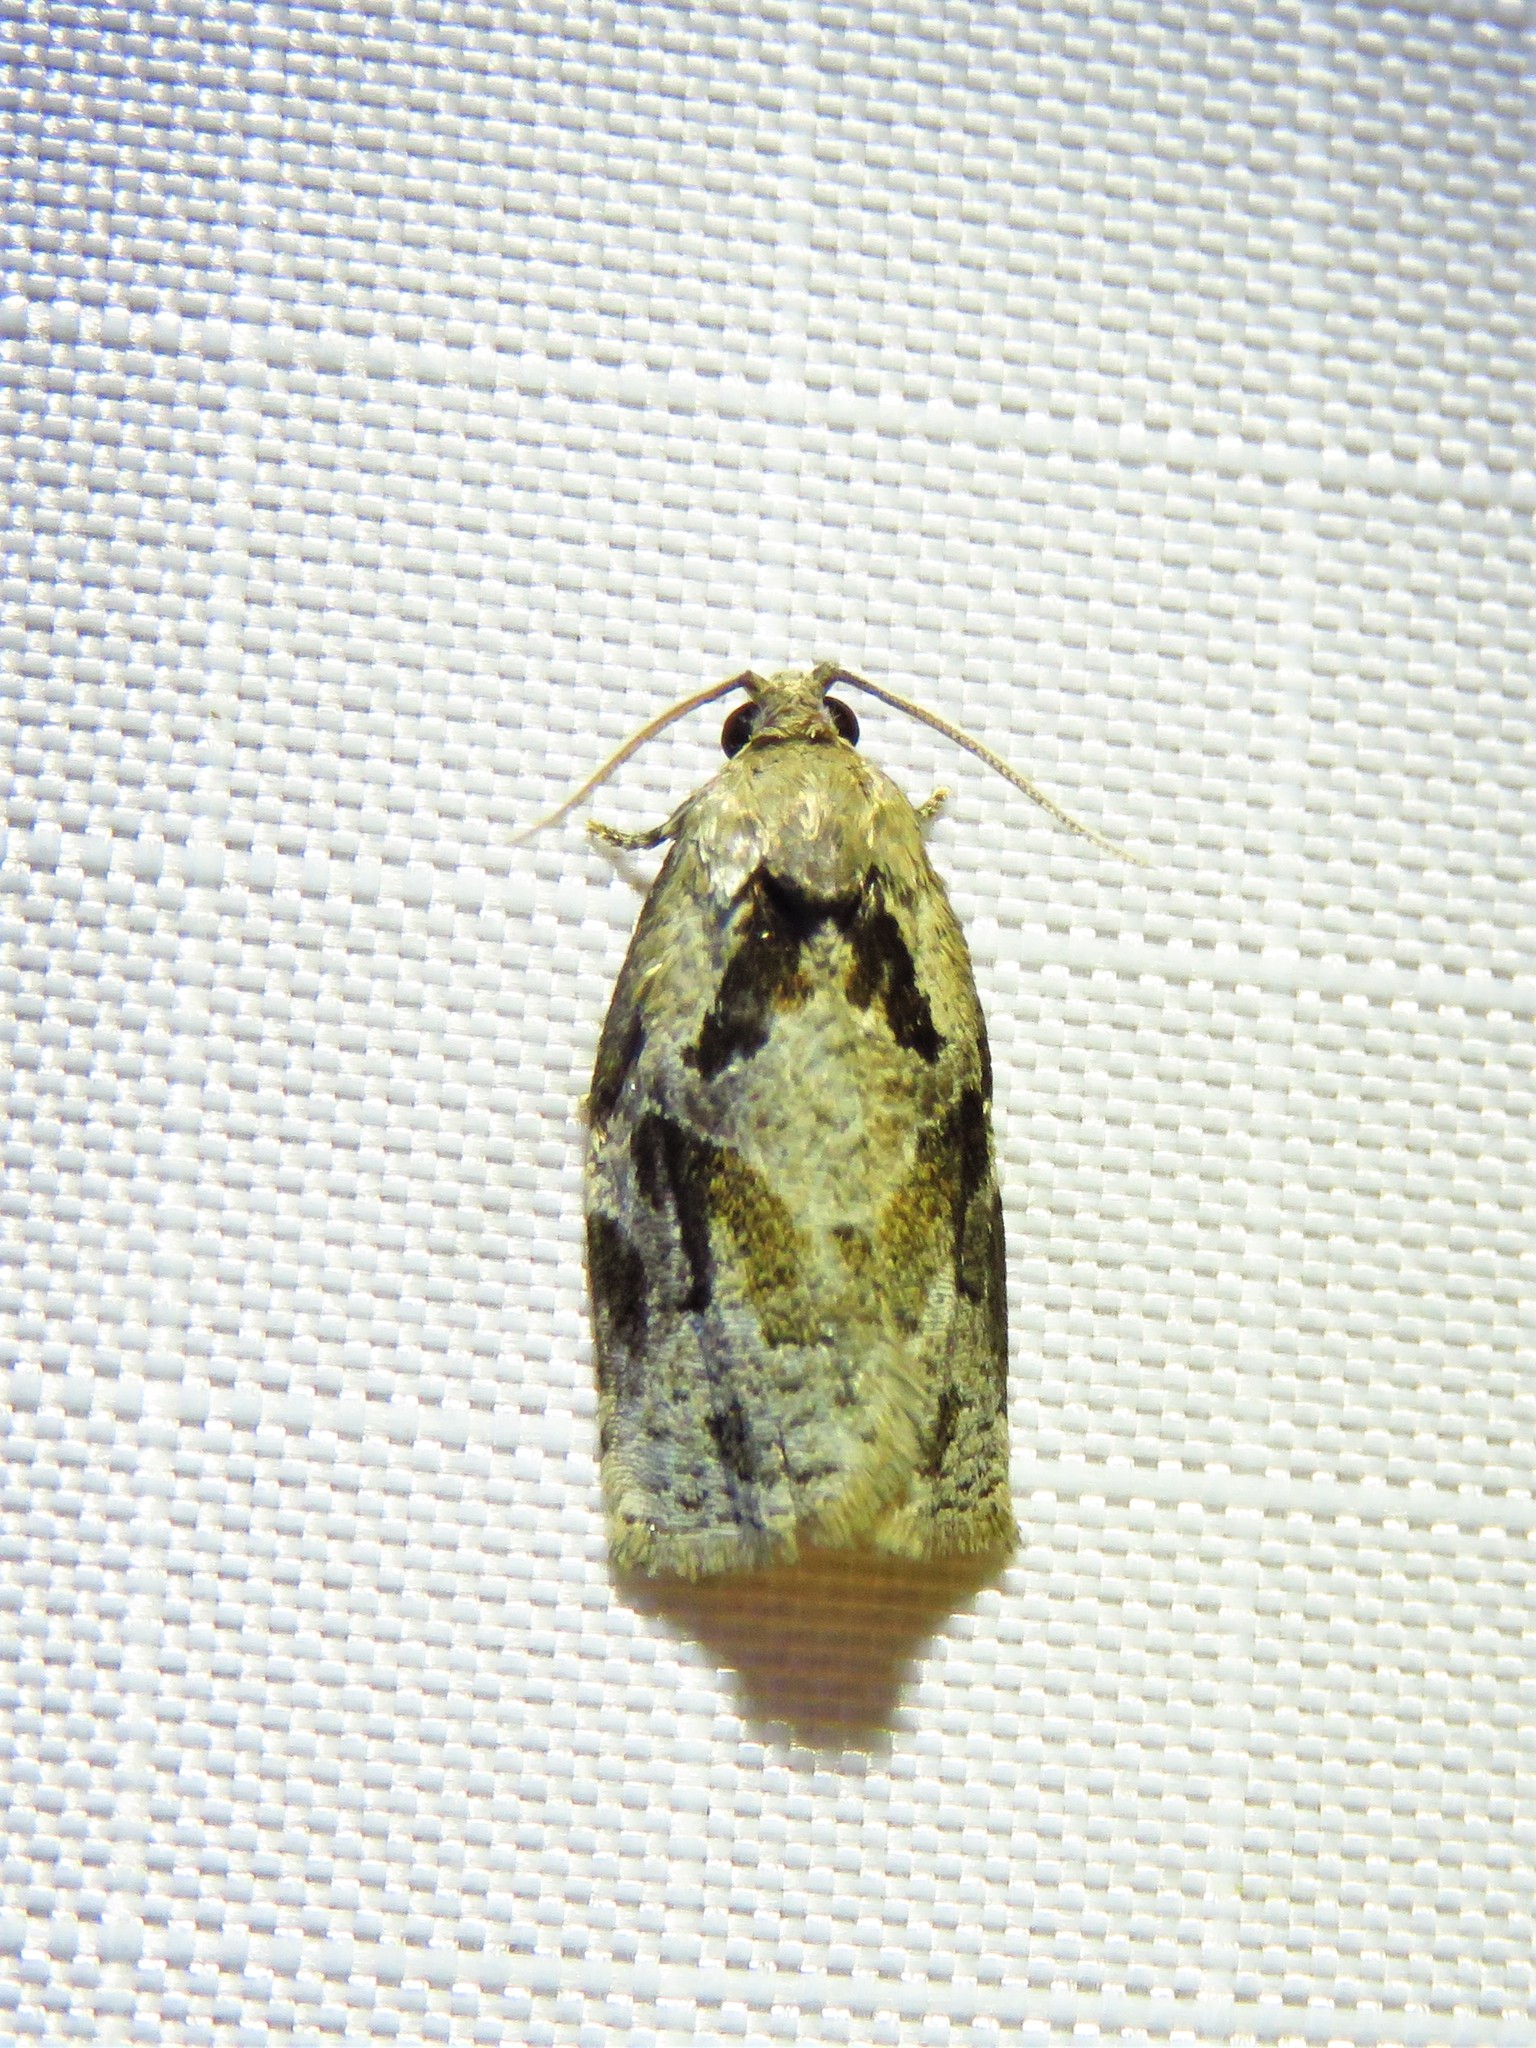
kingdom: Animalia
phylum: Arthropoda
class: Insecta
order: Lepidoptera
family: Tortricidae
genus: Archips
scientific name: Archips grisea
